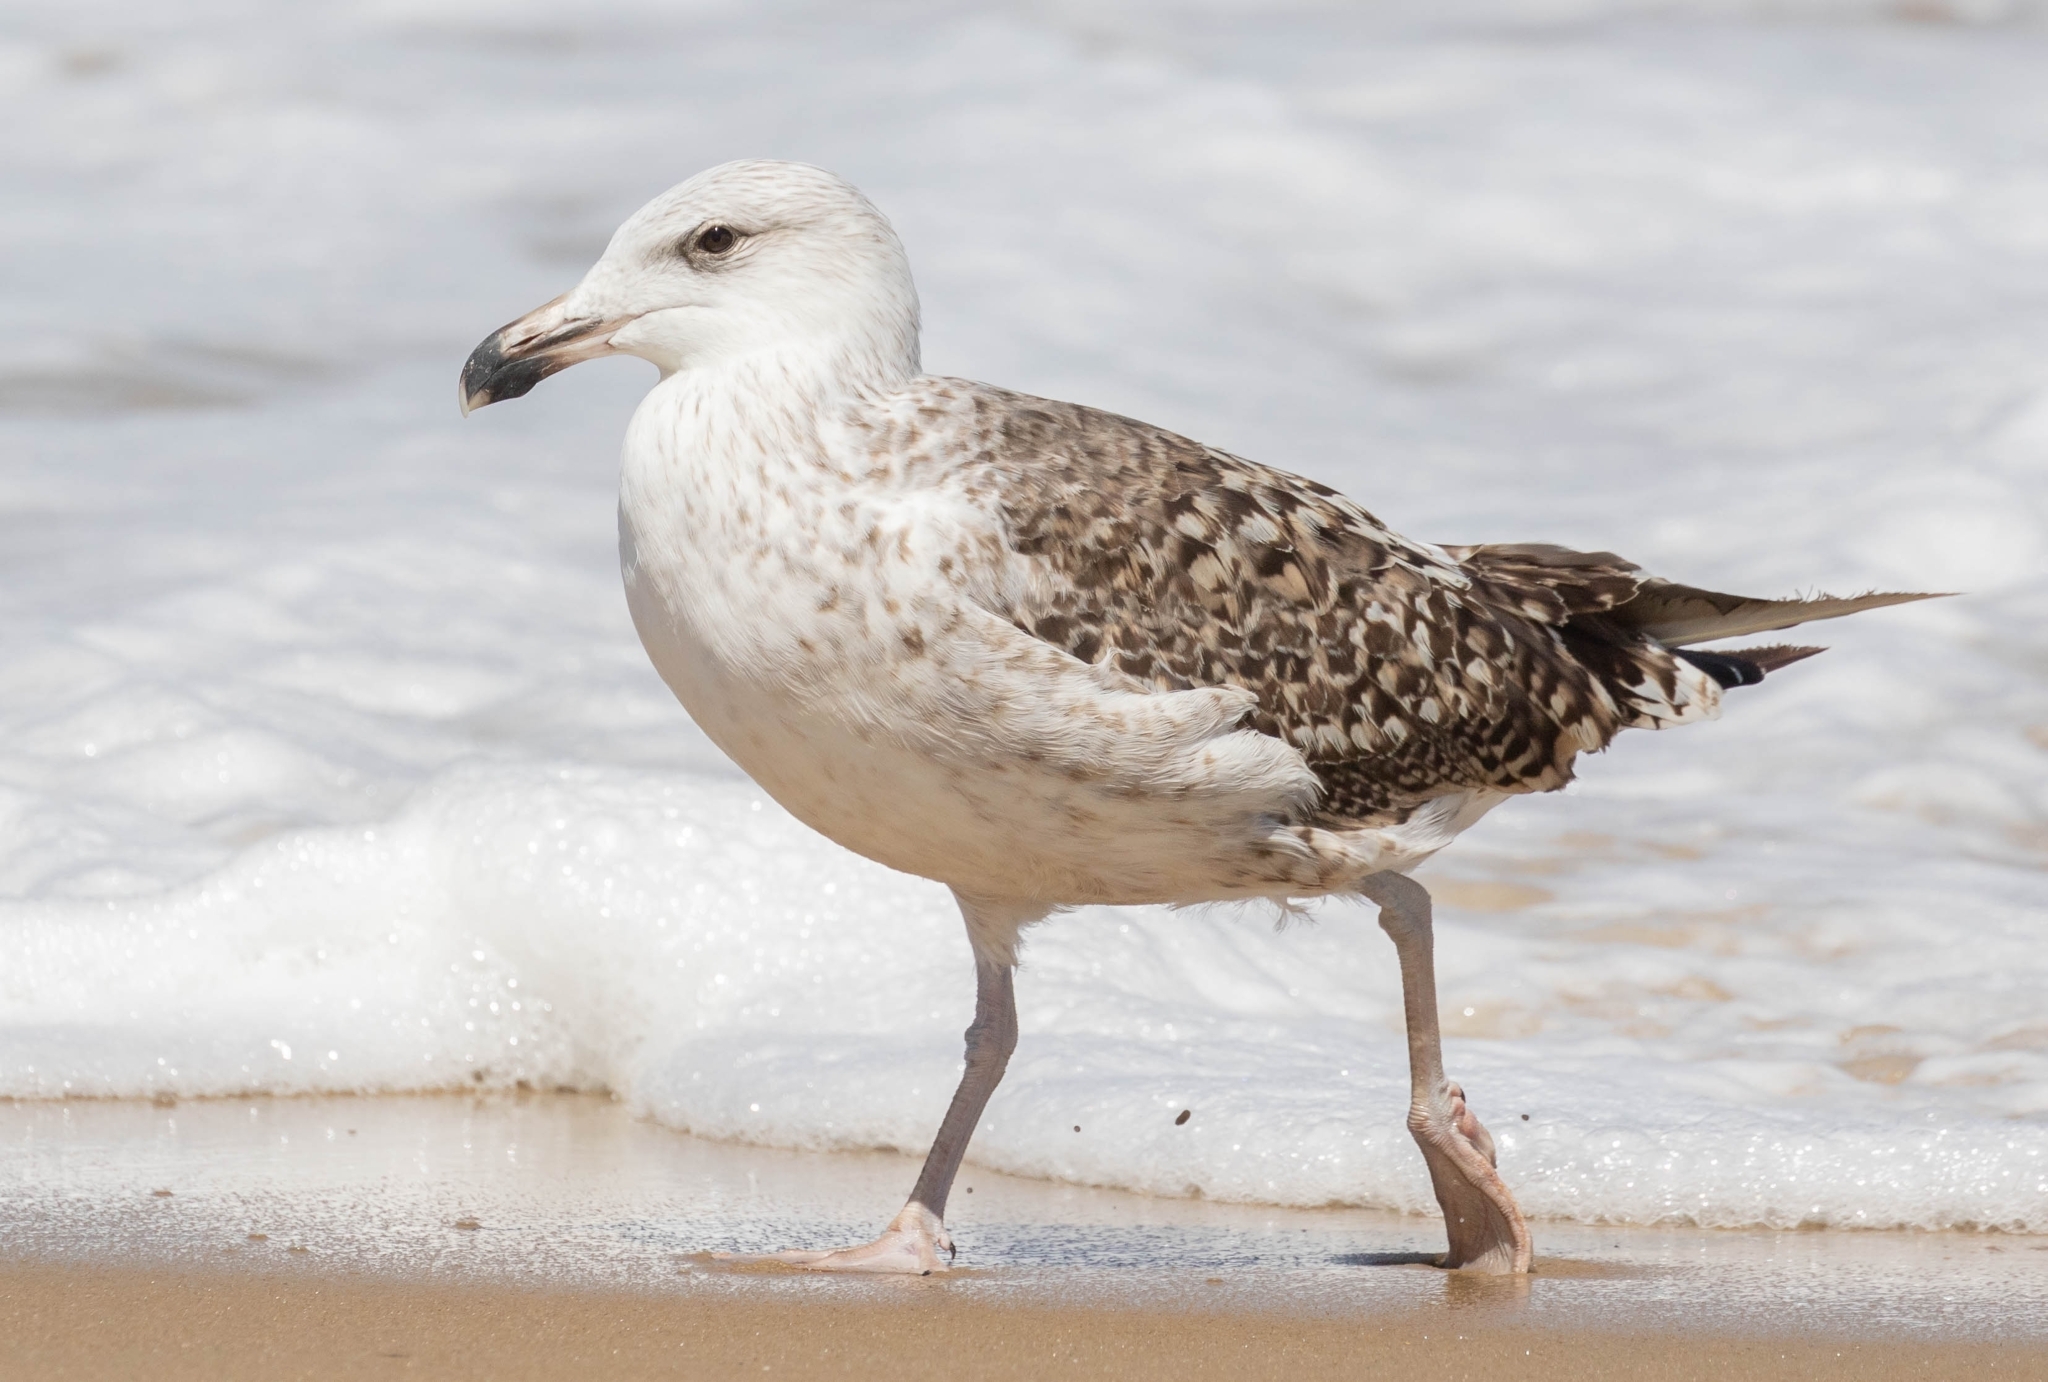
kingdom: Animalia
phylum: Chordata
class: Aves
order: Charadriiformes
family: Laridae
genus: Larus
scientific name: Larus marinus
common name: Great black-backed gull
